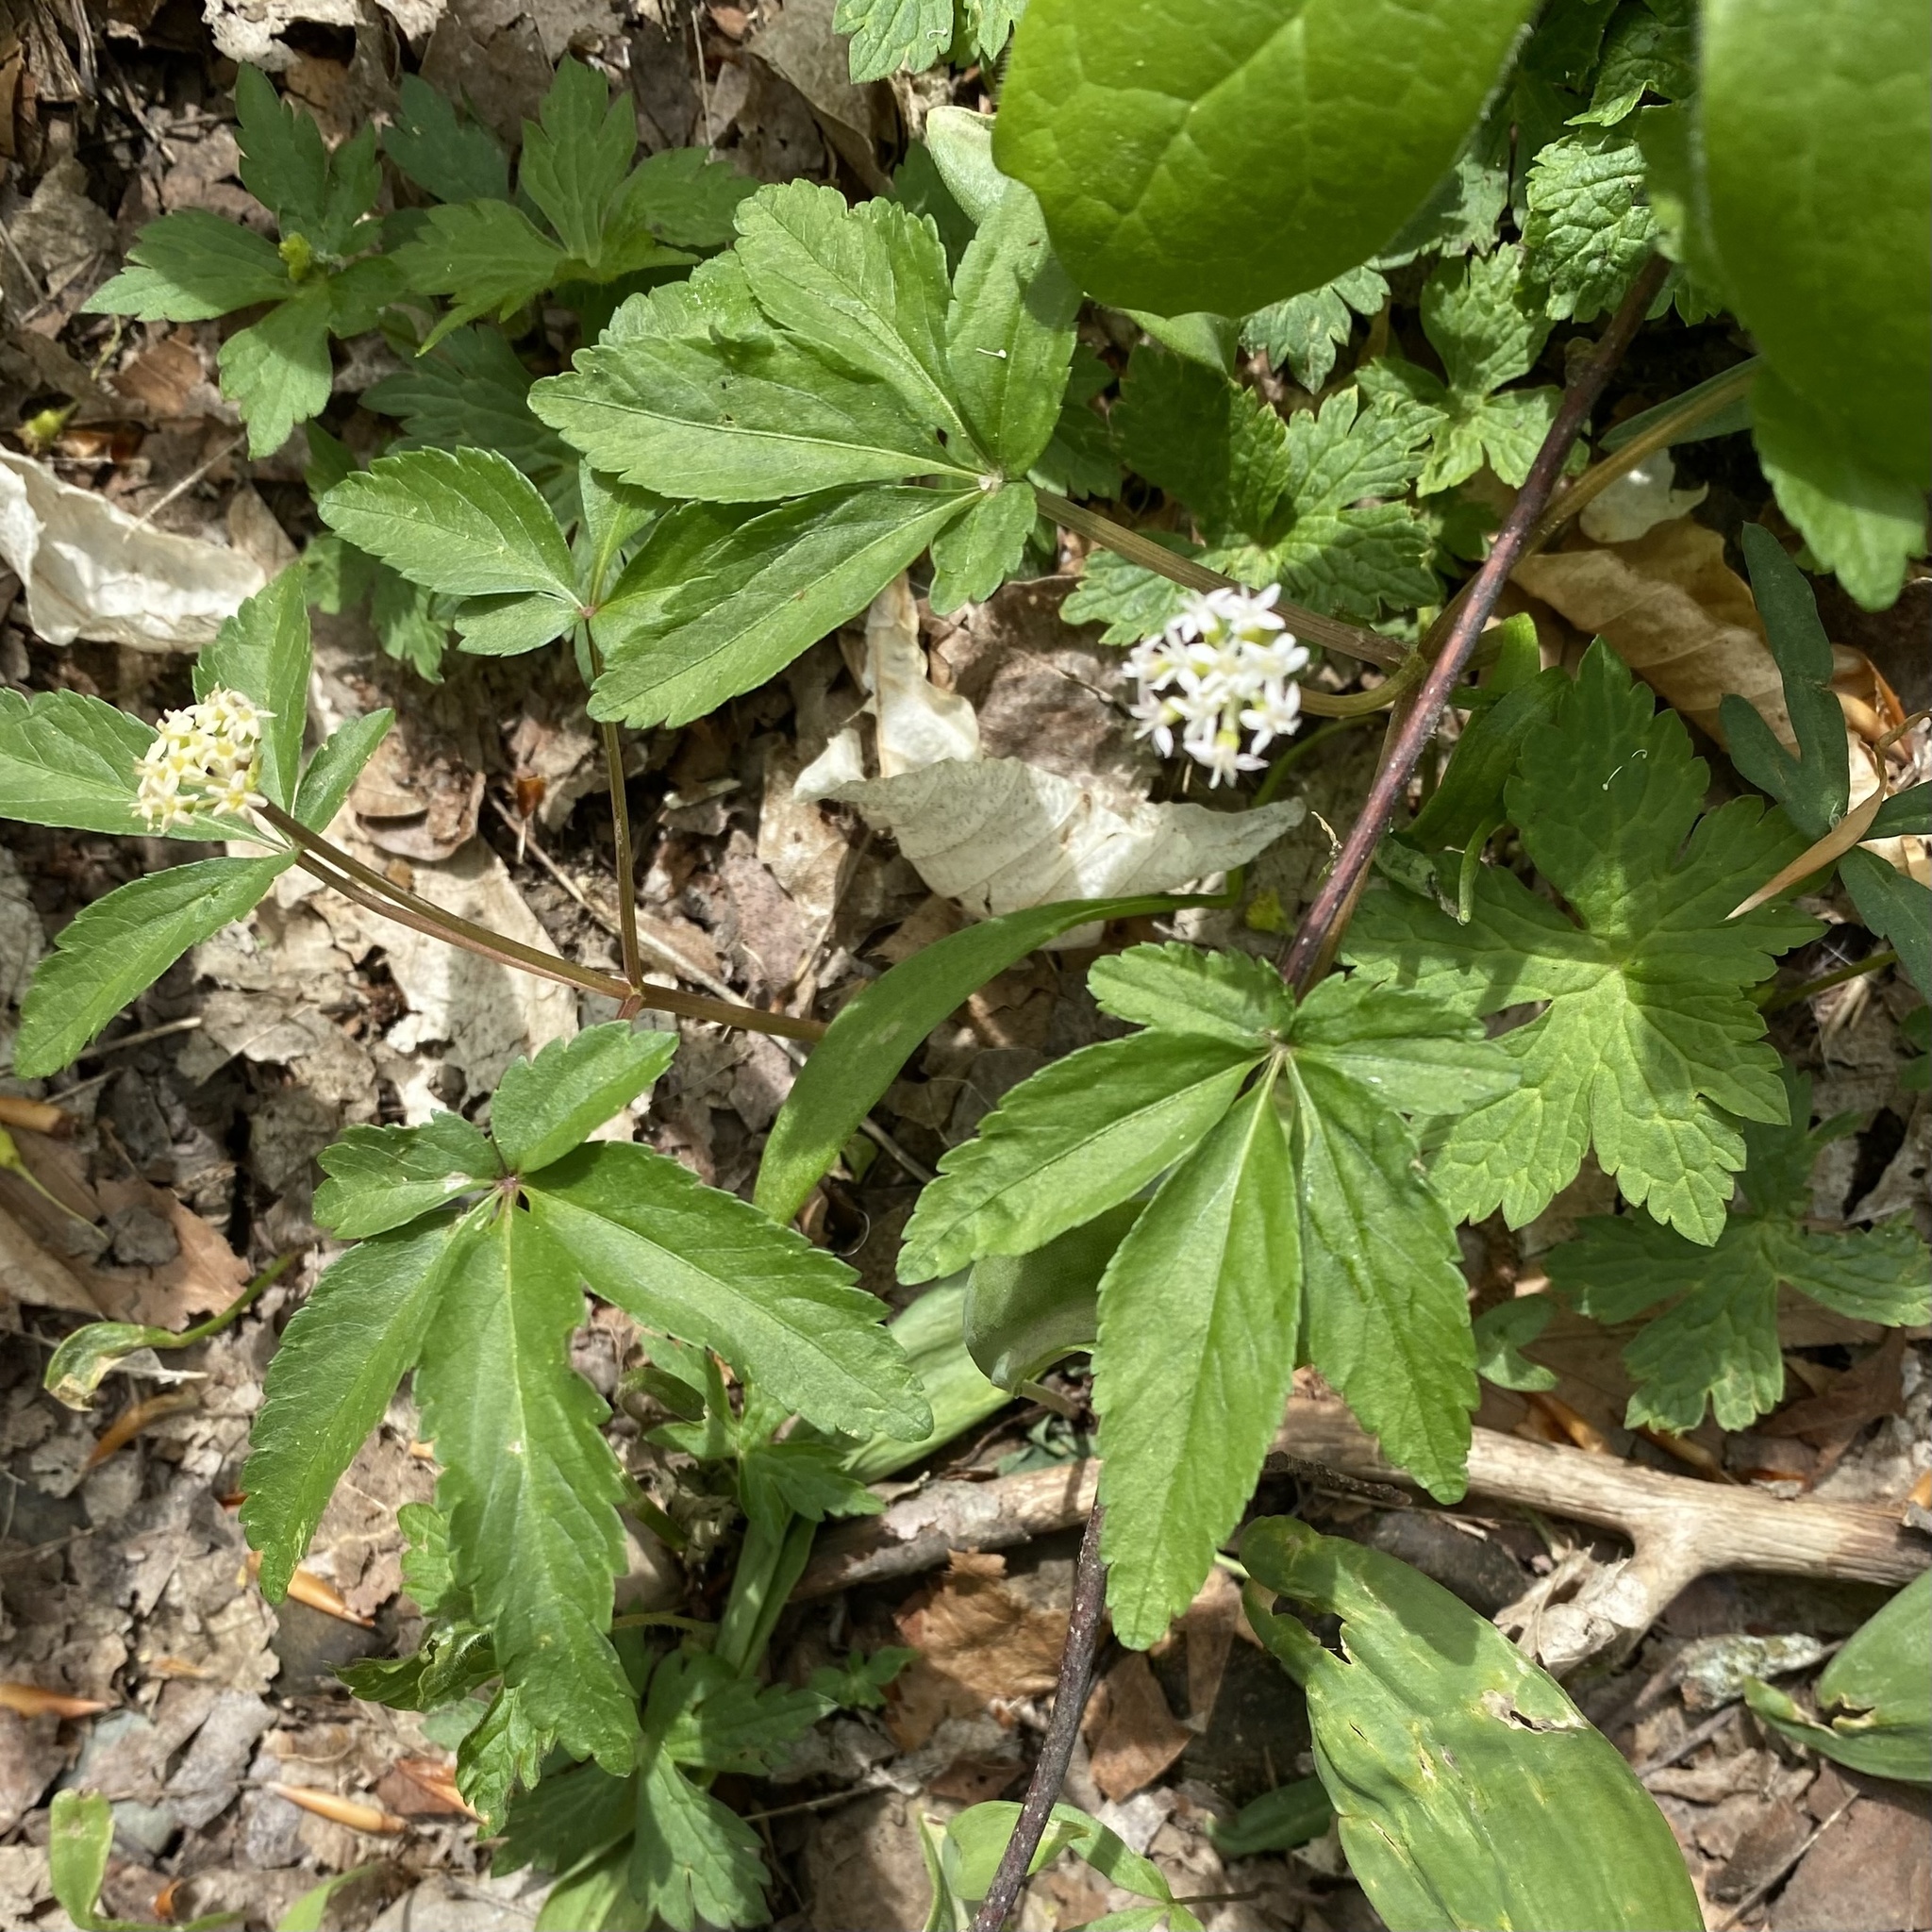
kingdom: Plantae
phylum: Tracheophyta
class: Magnoliopsida
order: Apiales
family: Araliaceae
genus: Panax
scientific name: Panax trifolius
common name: Dwarf ginseng
